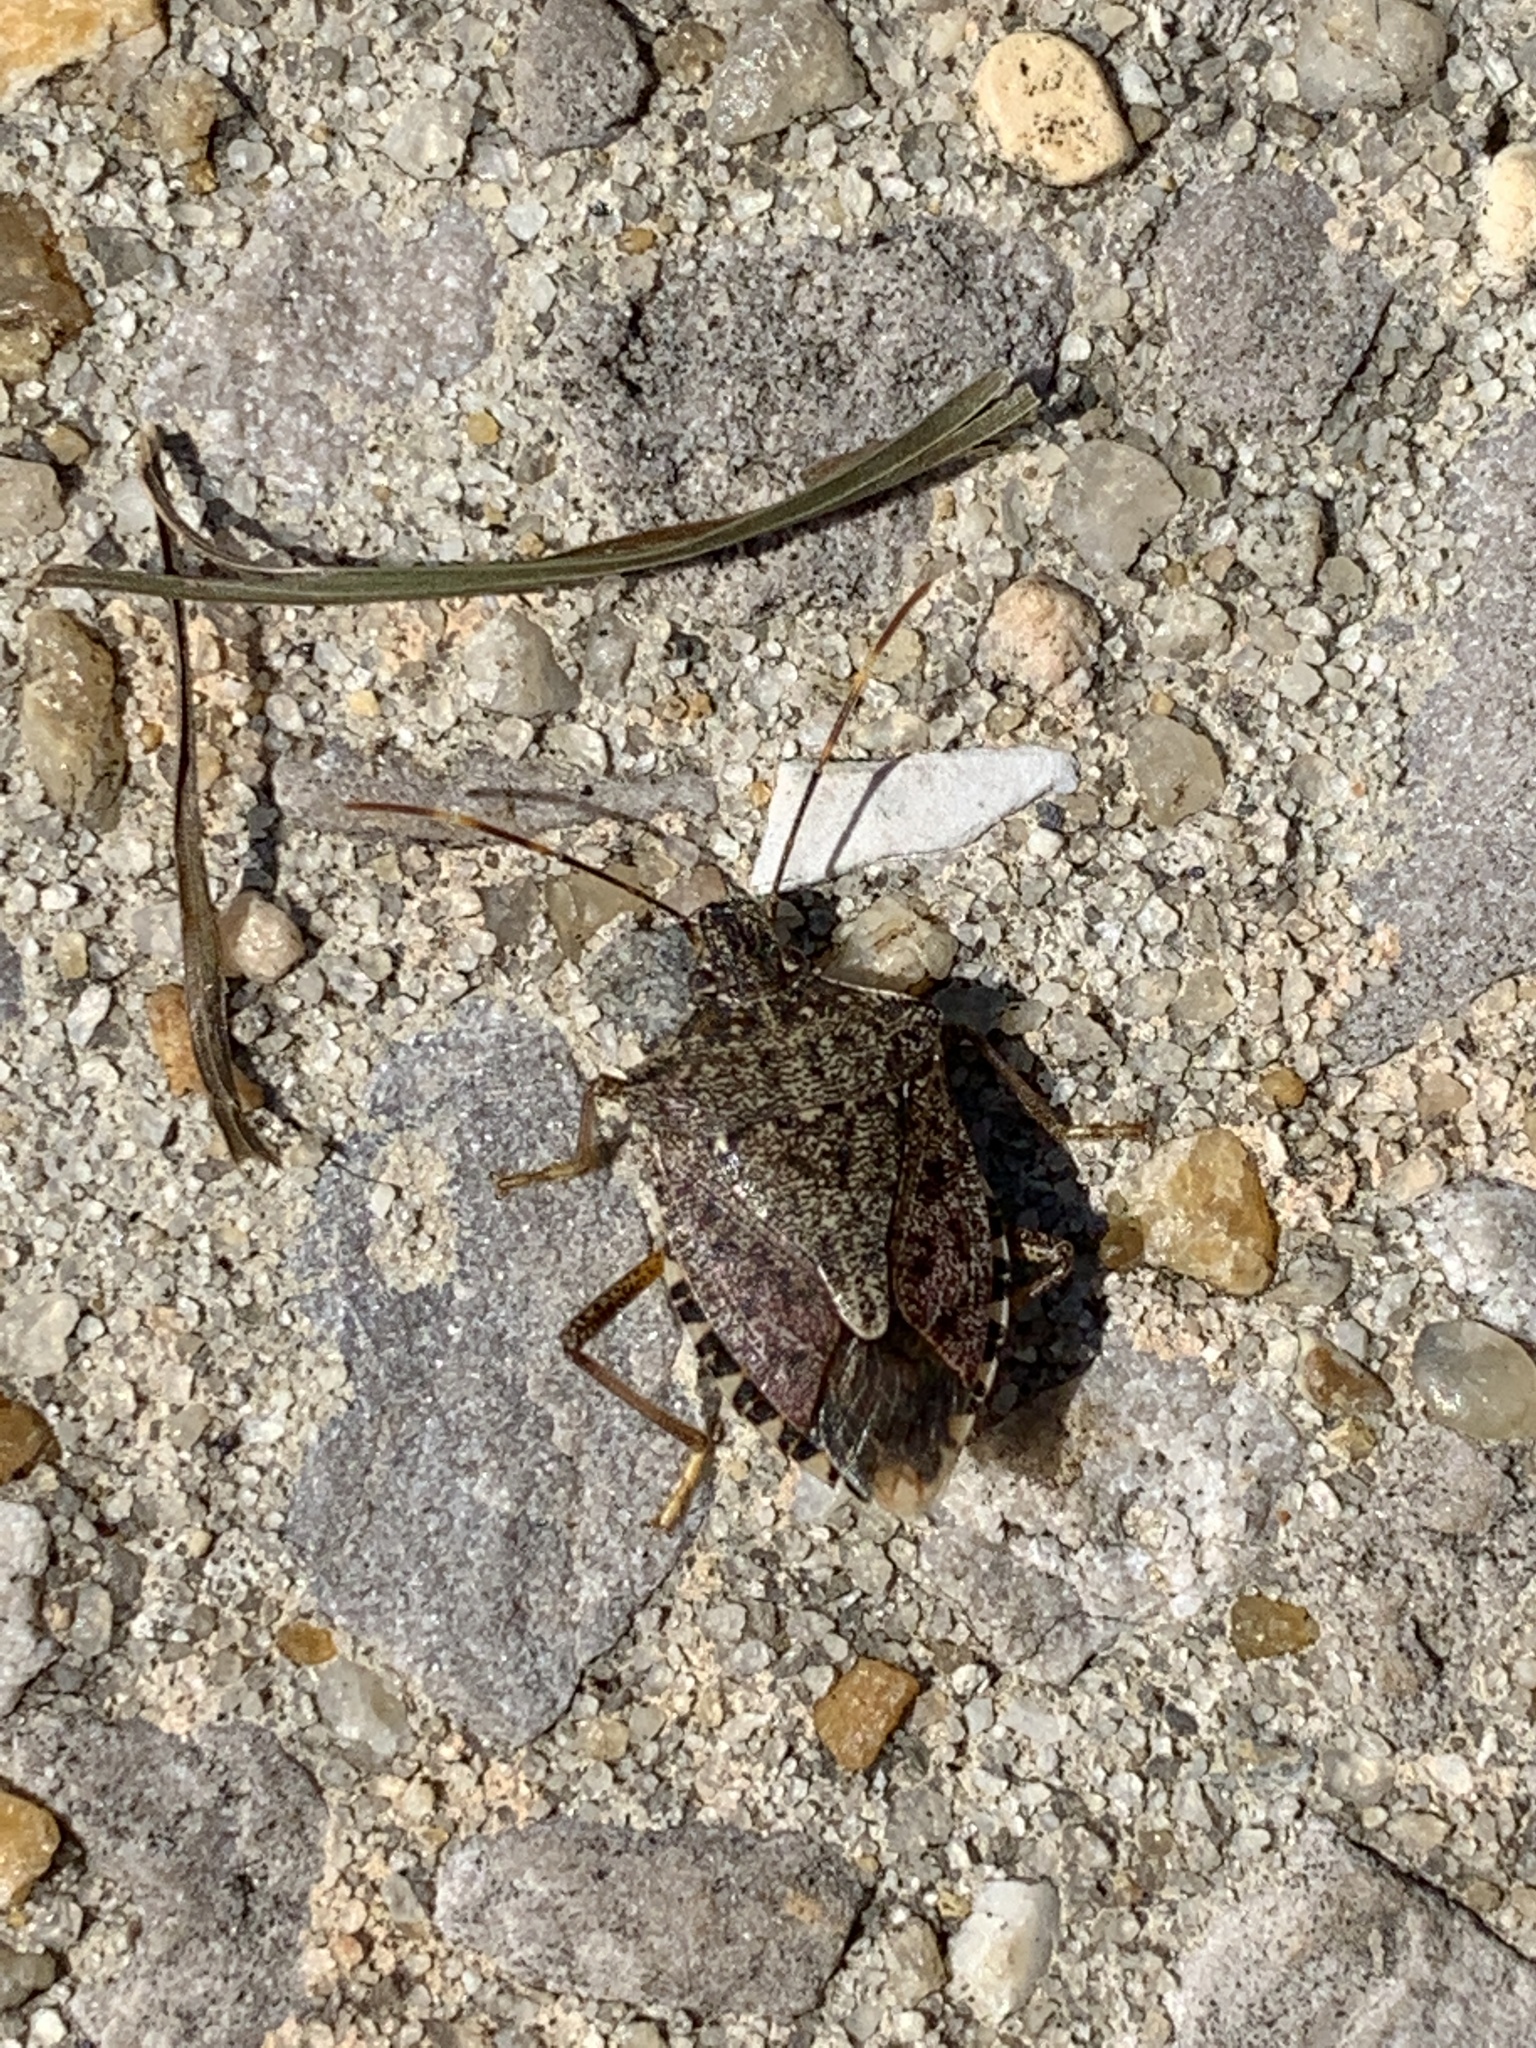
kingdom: Animalia
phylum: Arthropoda
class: Insecta
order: Hemiptera
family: Pentatomidae
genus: Halyomorpha
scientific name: Halyomorpha halys
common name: Brown marmorated stink bug
